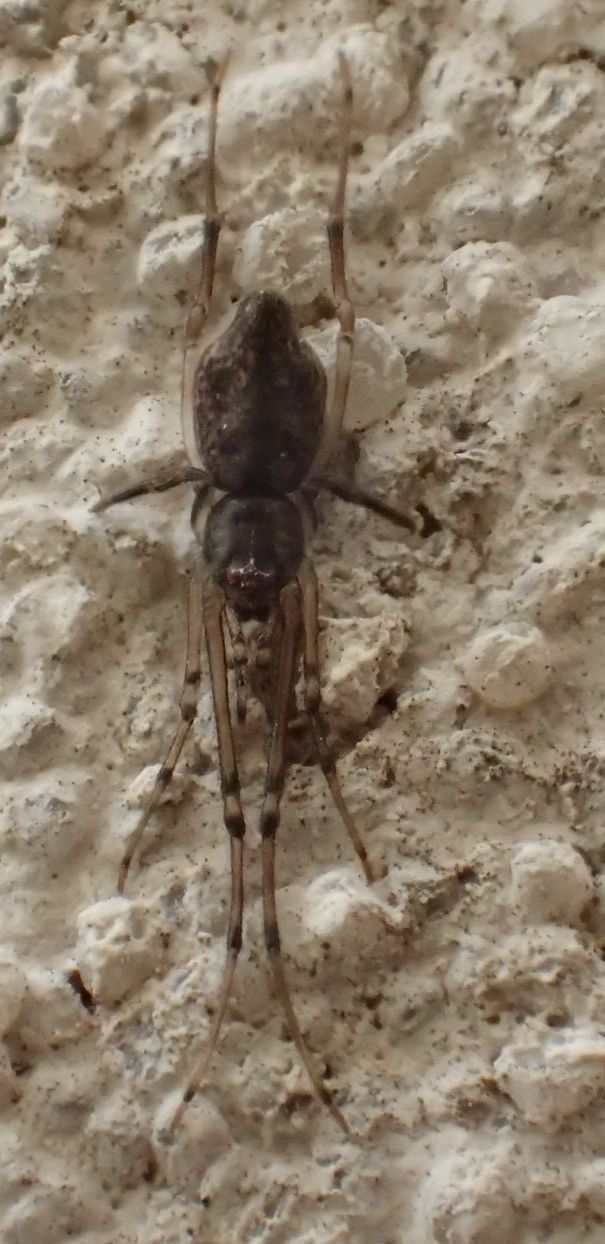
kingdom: Animalia
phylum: Arthropoda
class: Arachnida
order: Araneae
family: Theridiidae
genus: Moneta
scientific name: Moneta conifera
